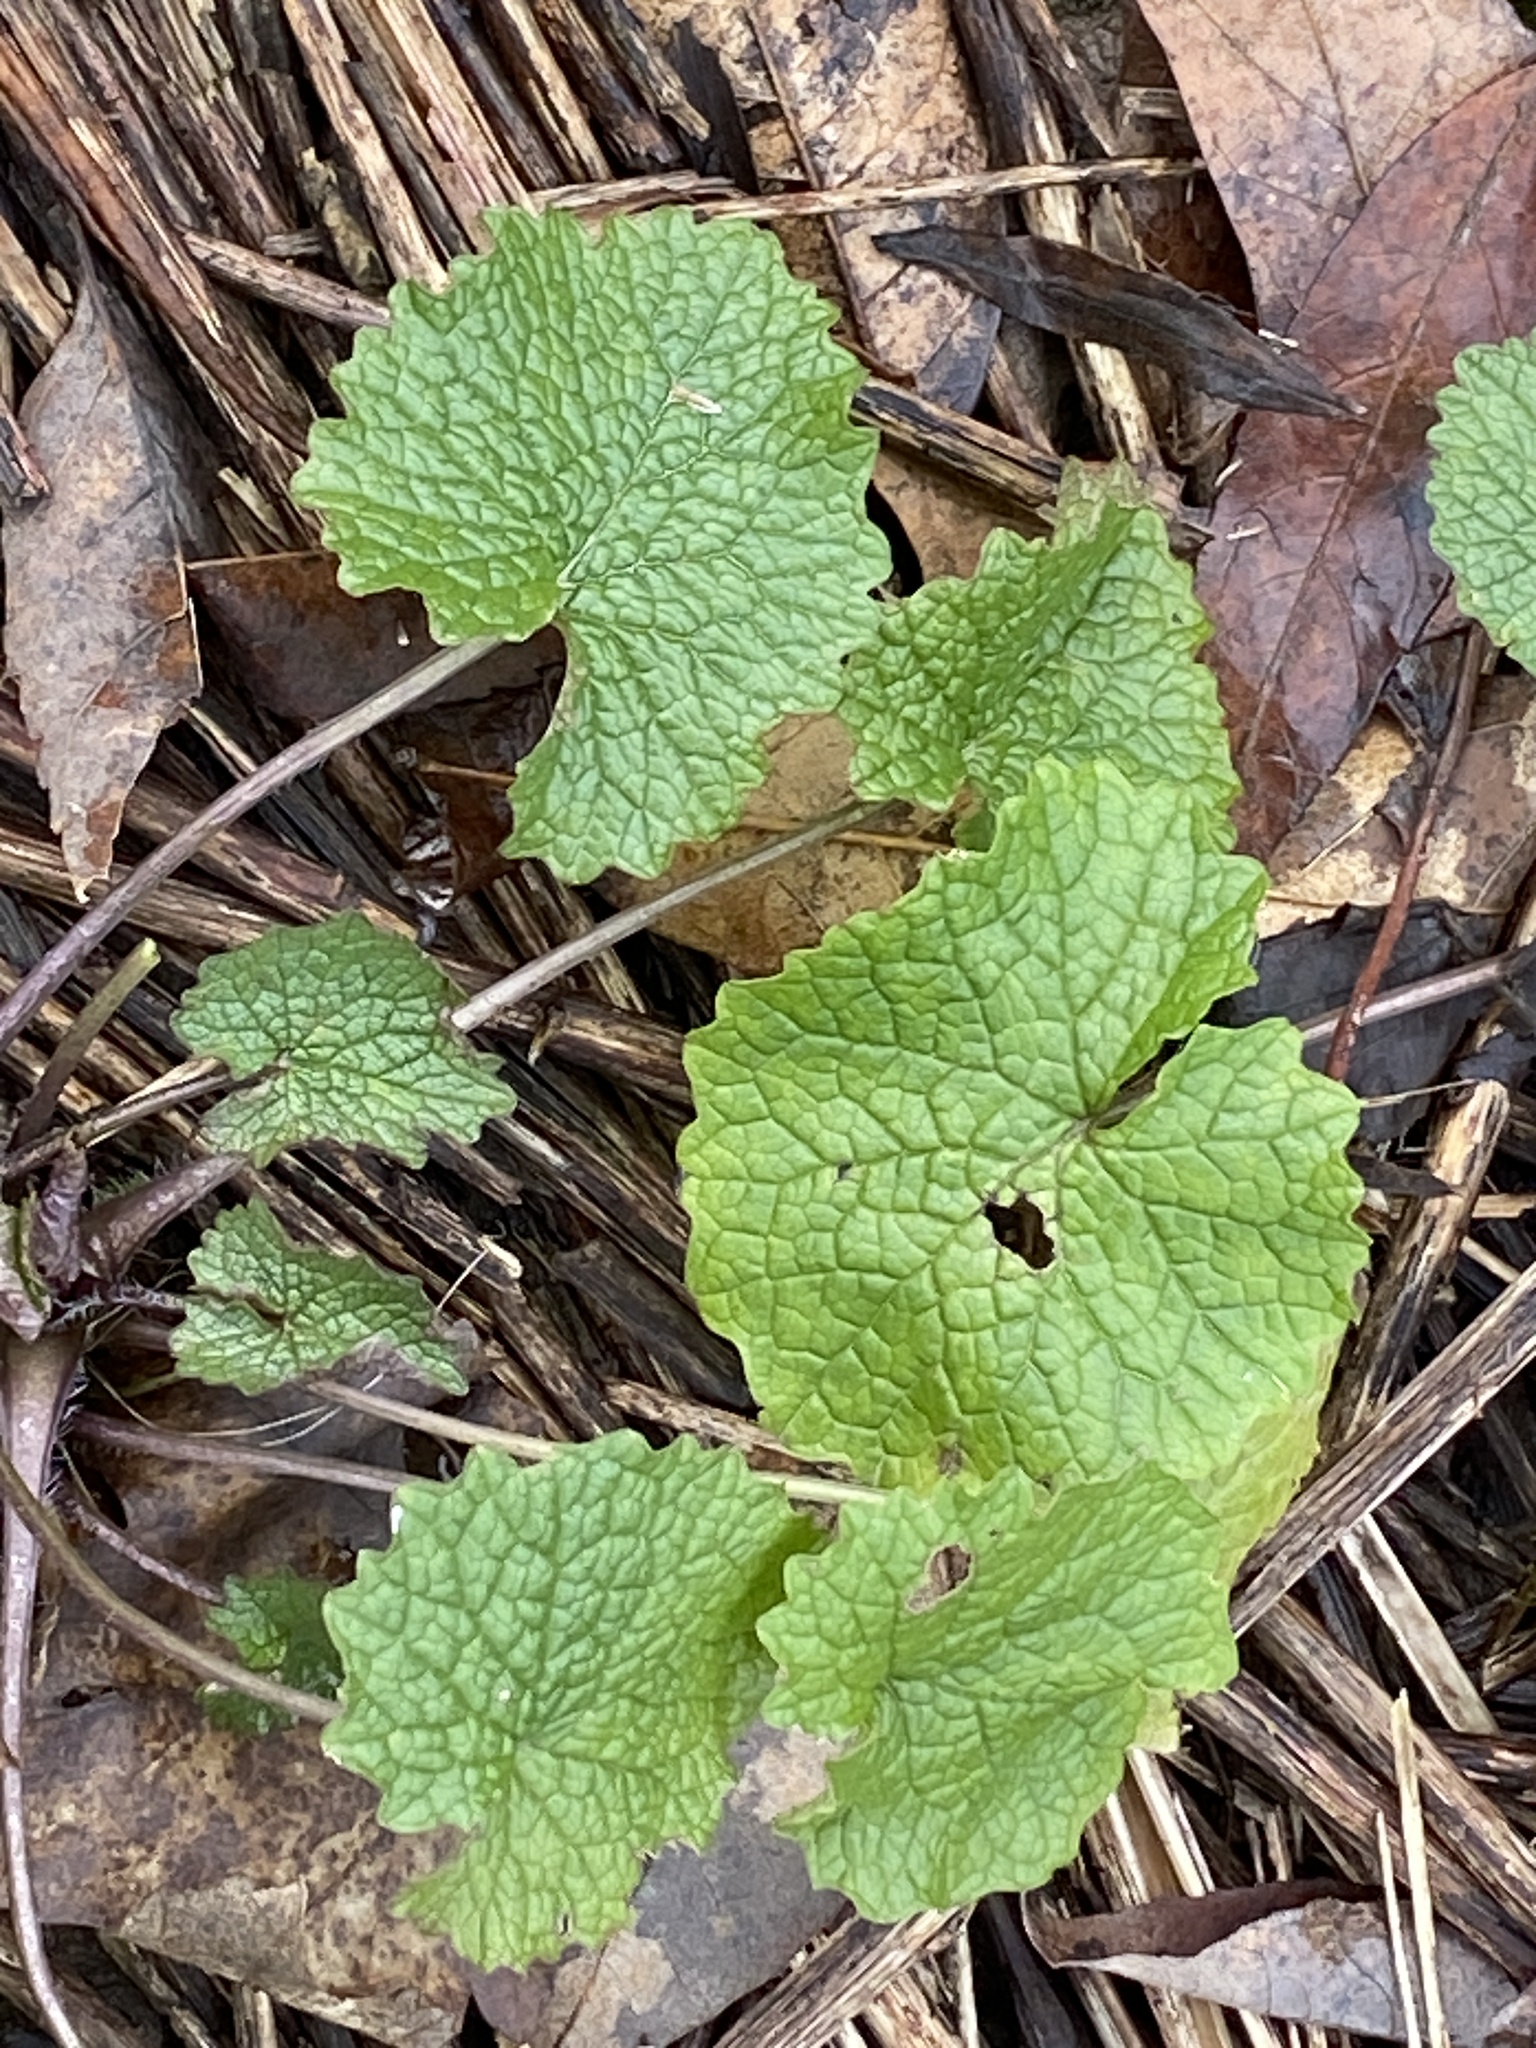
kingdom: Plantae
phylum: Tracheophyta
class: Magnoliopsida
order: Brassicales
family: Brassicaceae
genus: Alliaria
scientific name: Alliaria petiolata
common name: Garlic mustard
